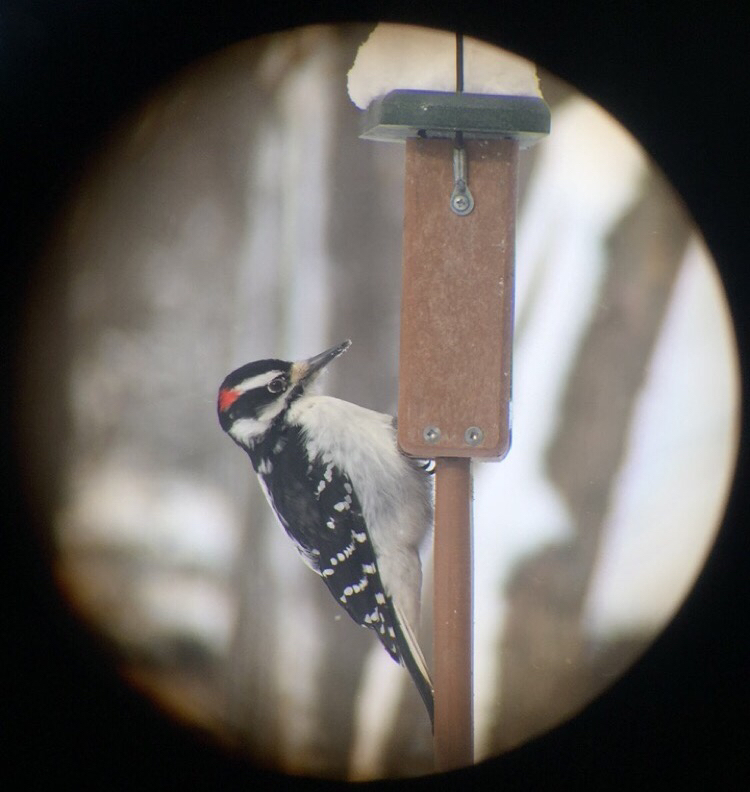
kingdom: Animalia
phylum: Chordata
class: Aves
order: Piciformes
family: Picidae
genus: Leuconotopicus
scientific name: Leuconotopicus villosus
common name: Hairy woodpecker
